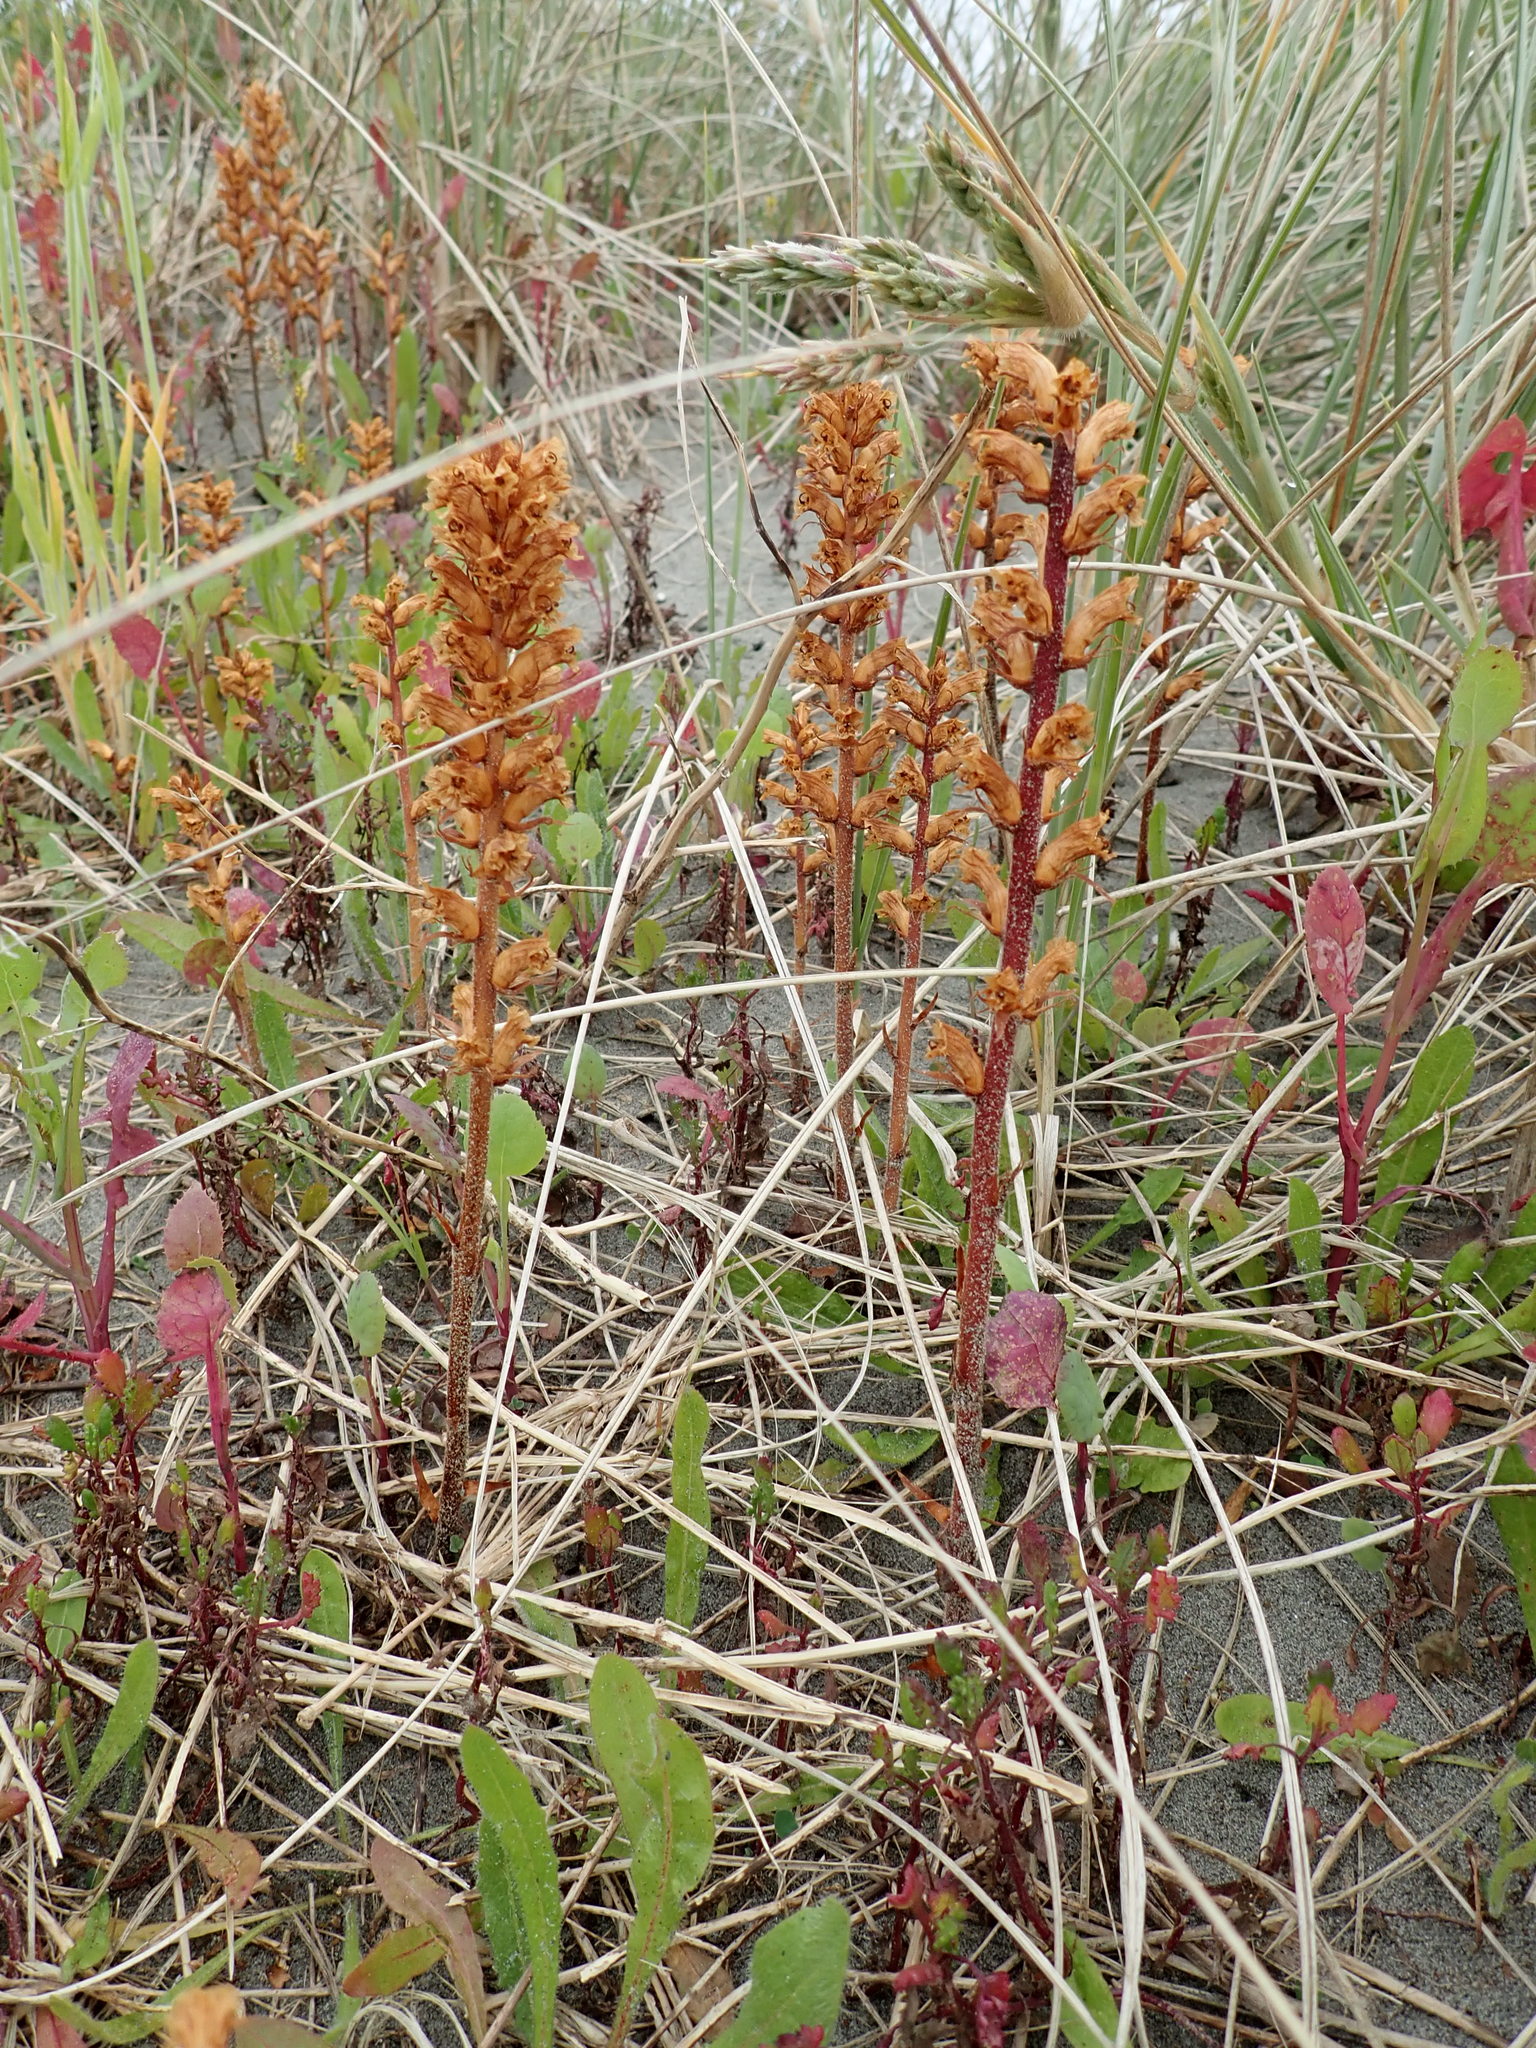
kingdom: Plantae
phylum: Tracheophyta
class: Magnoliopsida
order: Lamiales
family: Orobanchaceae
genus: Orobanche
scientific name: Orobanche minor
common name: Common broomrape
